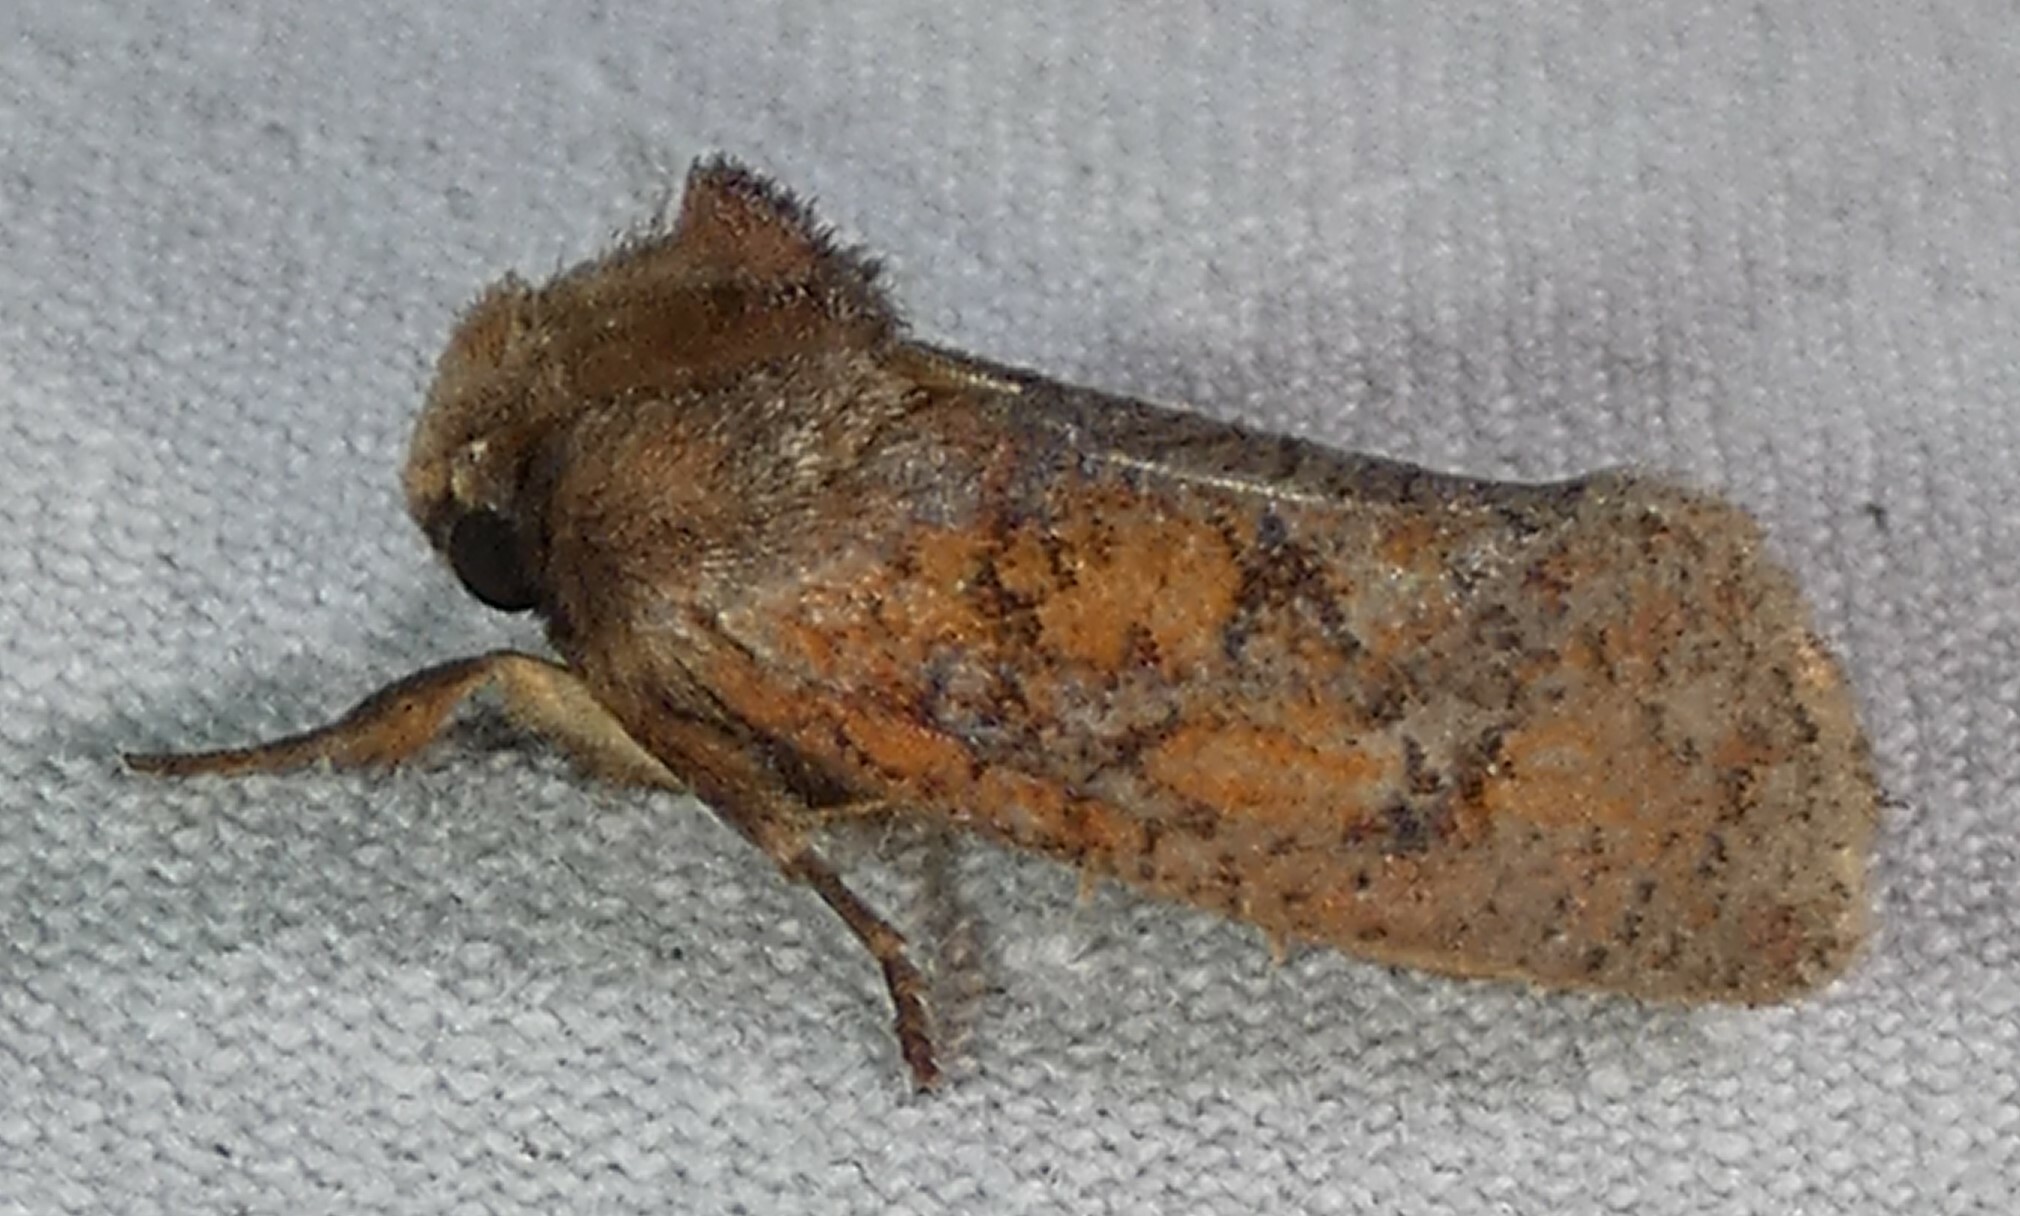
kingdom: Animalia
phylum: Arthropoda
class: Insecta
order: Lepidoptera
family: Tineidae
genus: Acrolophus
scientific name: Acrolophus plumifrontella
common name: Eastern grass tubeworm moth
